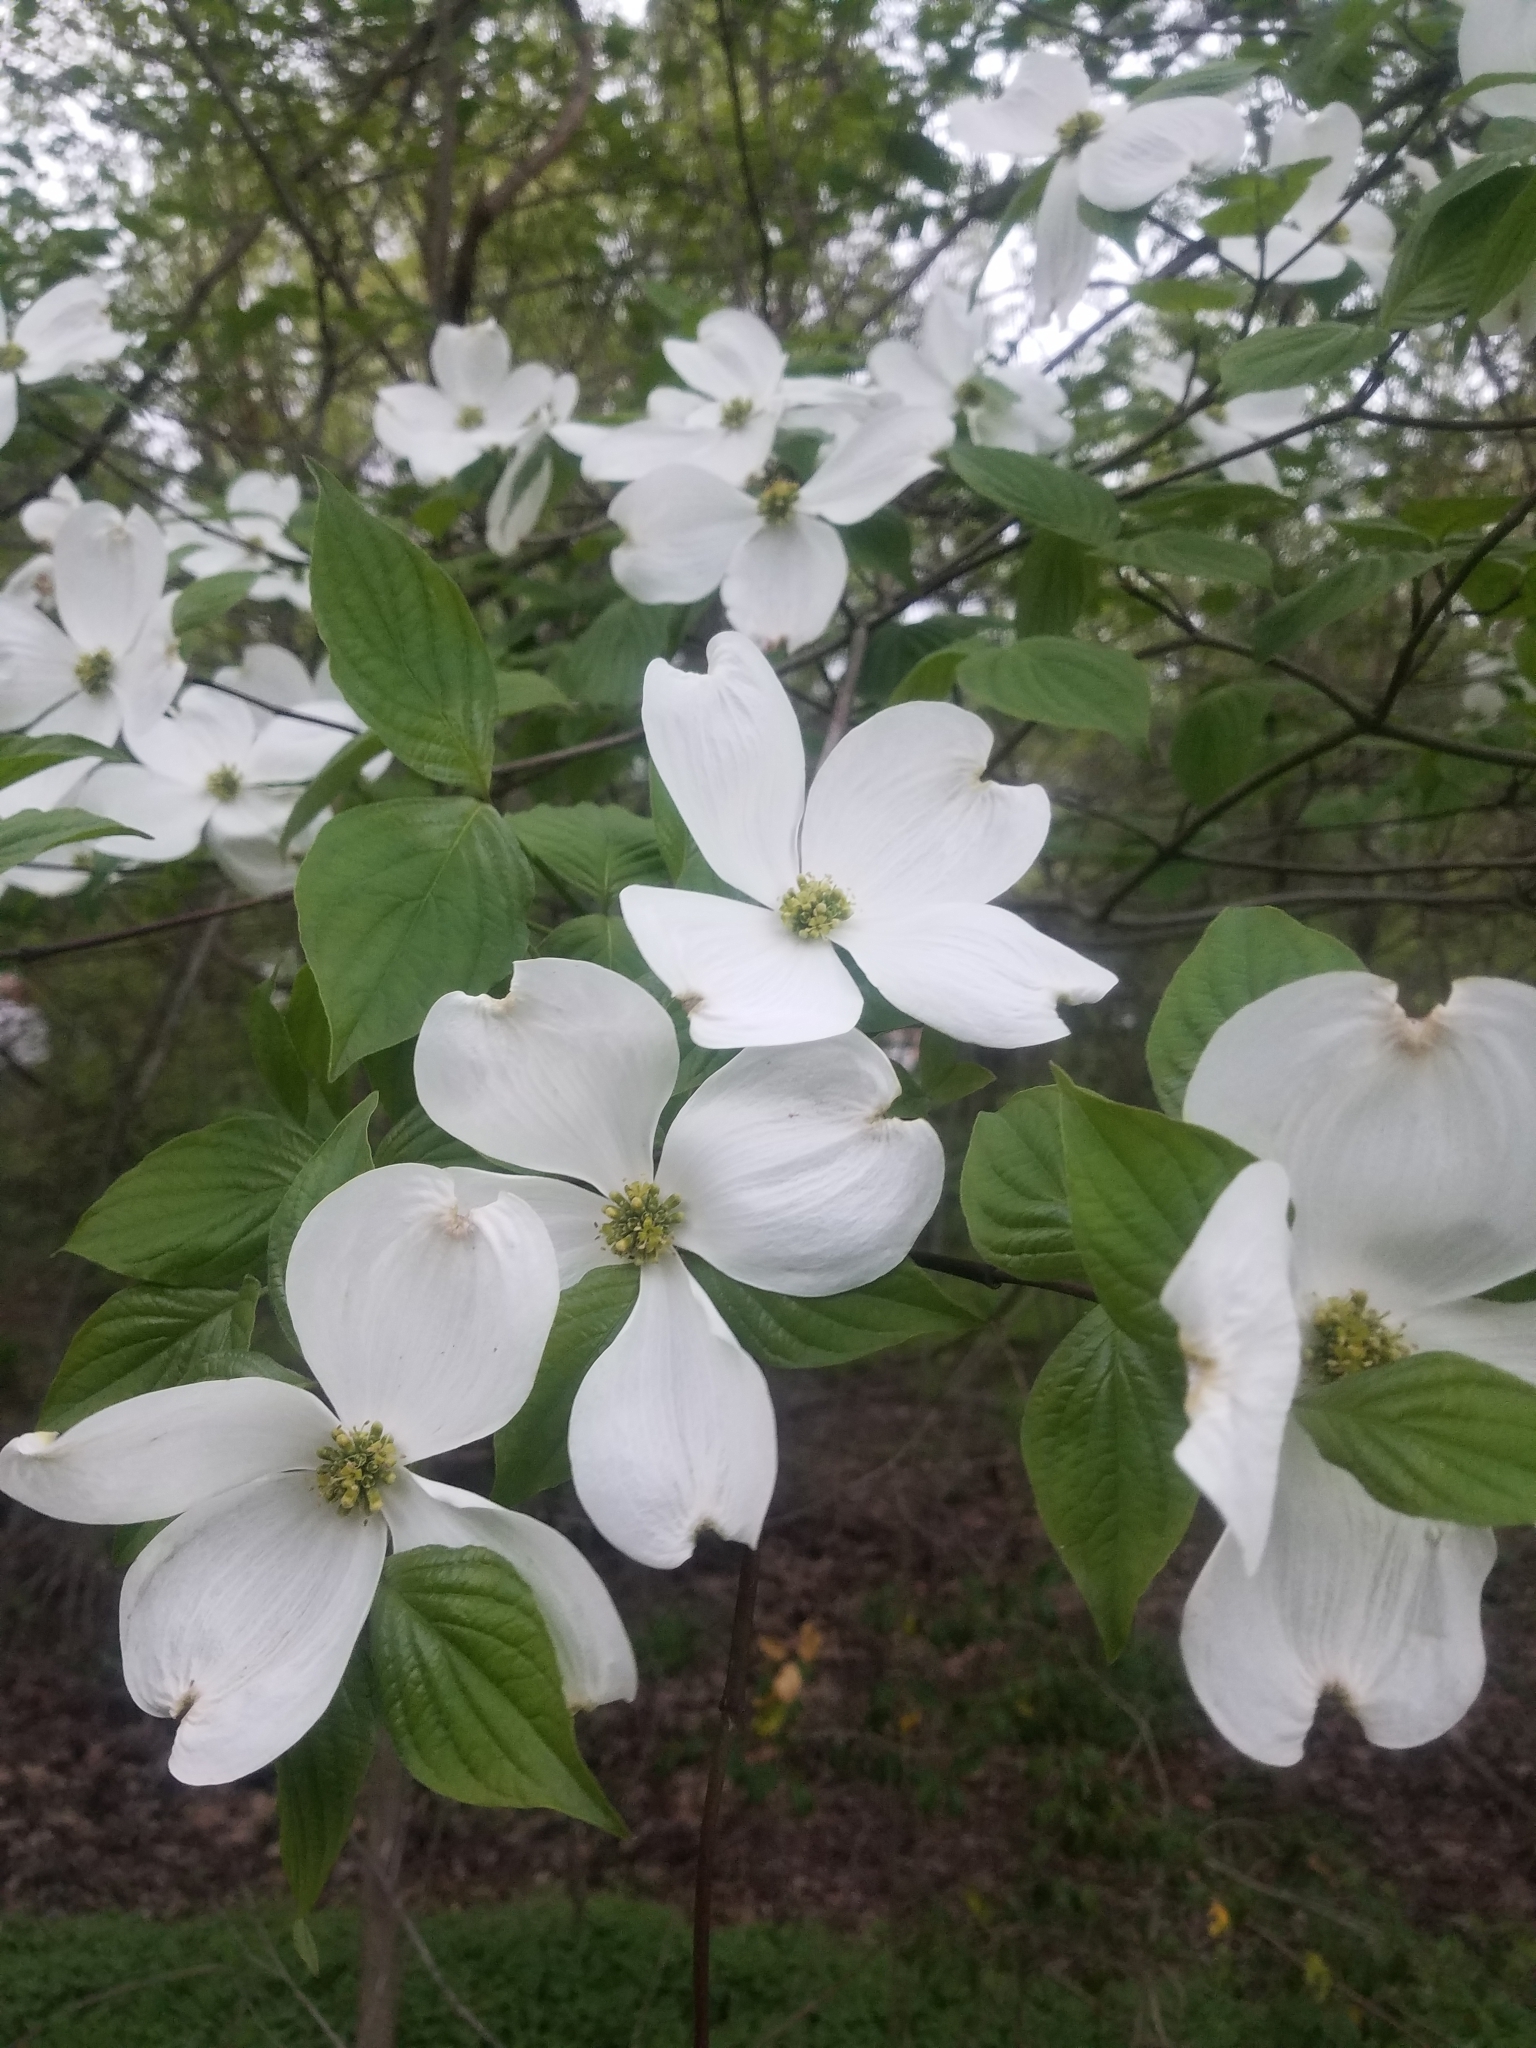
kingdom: Plantae
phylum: Tracheophyta
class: Magnoliopsida
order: Cornales
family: Cornaceae
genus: Cornus
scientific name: Cornus florida
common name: Flowering dogwood
